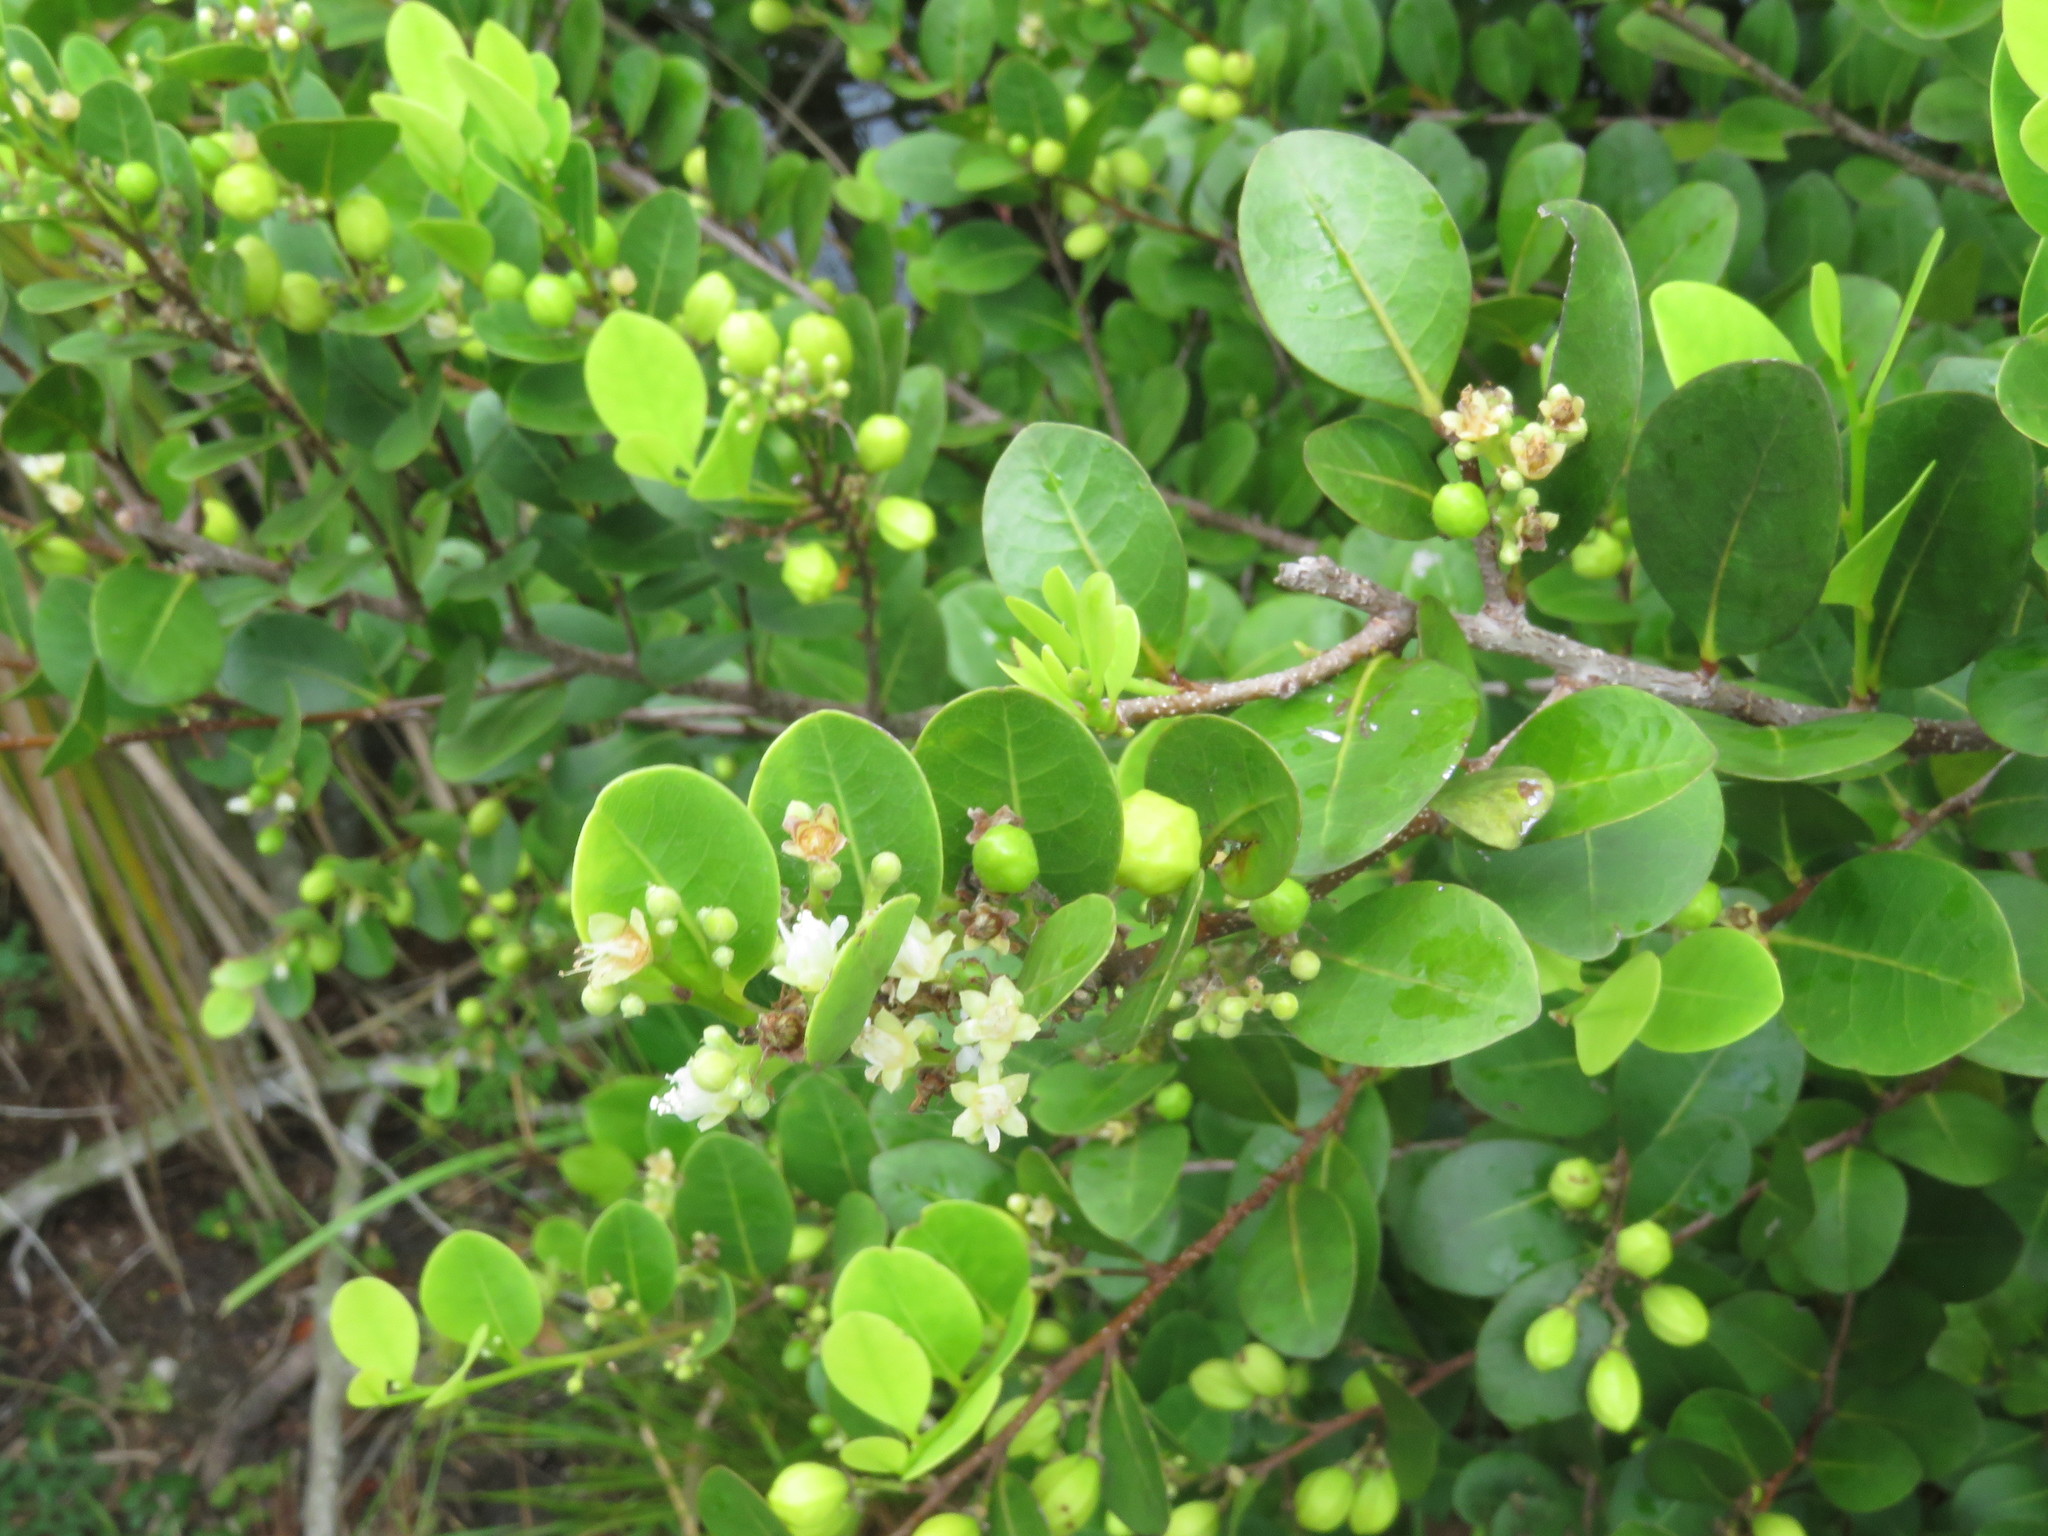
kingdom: Plantae
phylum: Tracheophyta
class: Magnoliopsida
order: Malpighiales
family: Chrysobalanaceae
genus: Chrysobalanus
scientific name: Chrysobalanus icaco
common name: Coco plum
